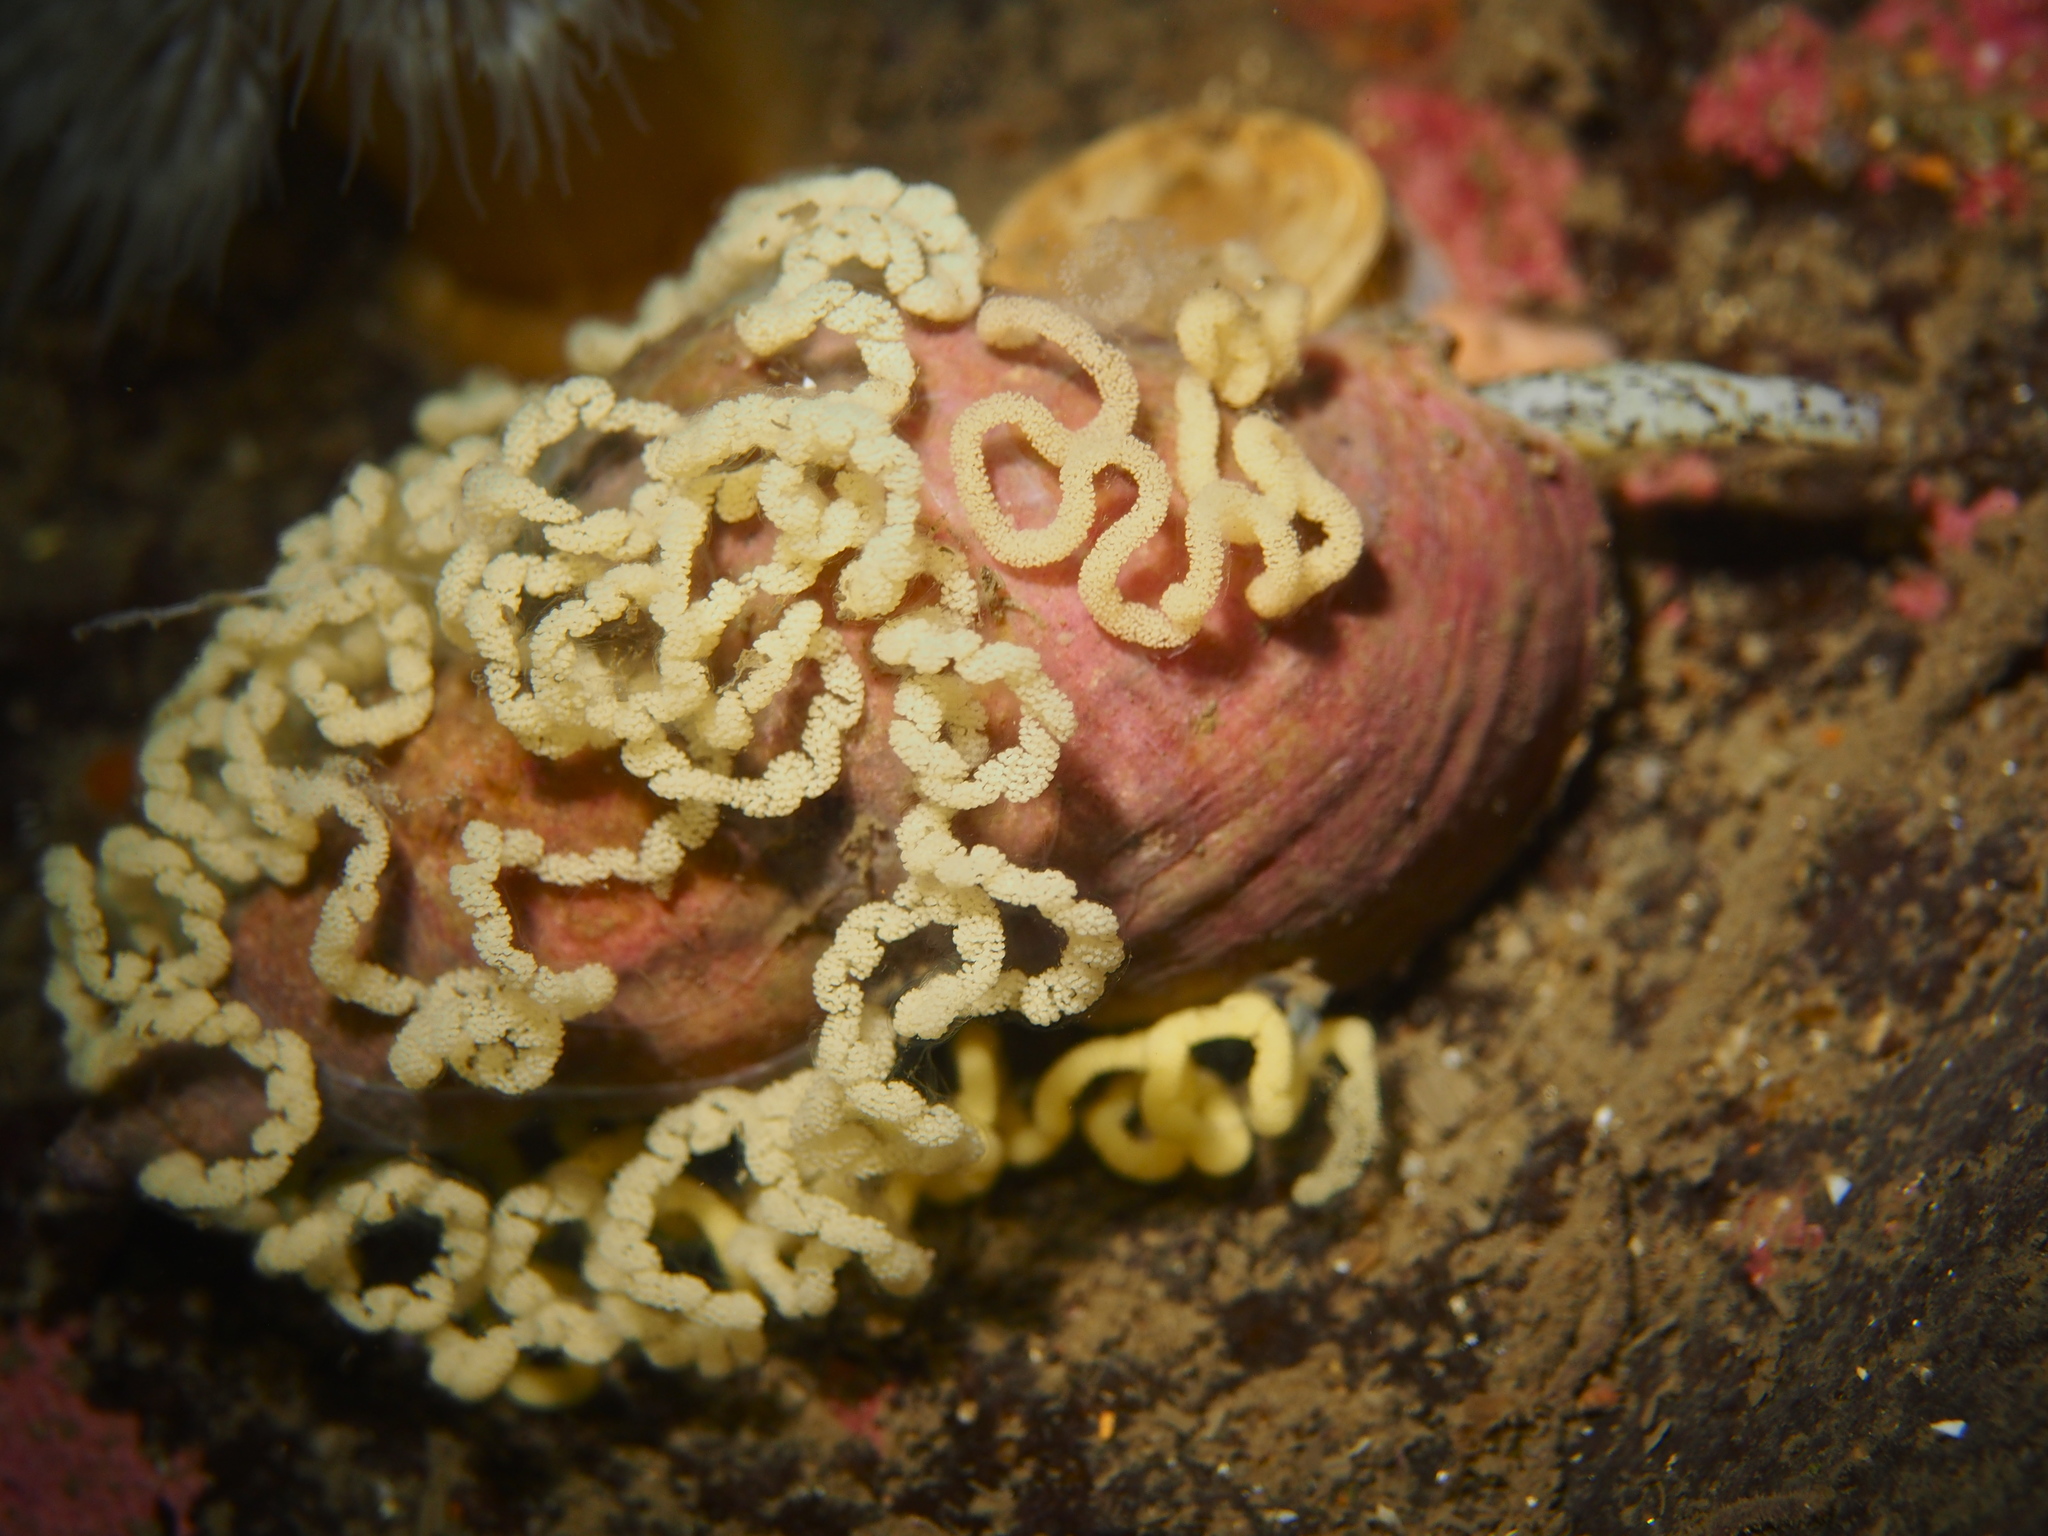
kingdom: Animalia
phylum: Mollusca
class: Gastropoda
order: Nudibranchia
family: Dendronotidae
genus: Dendronotus
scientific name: Dendronotus lacteus
